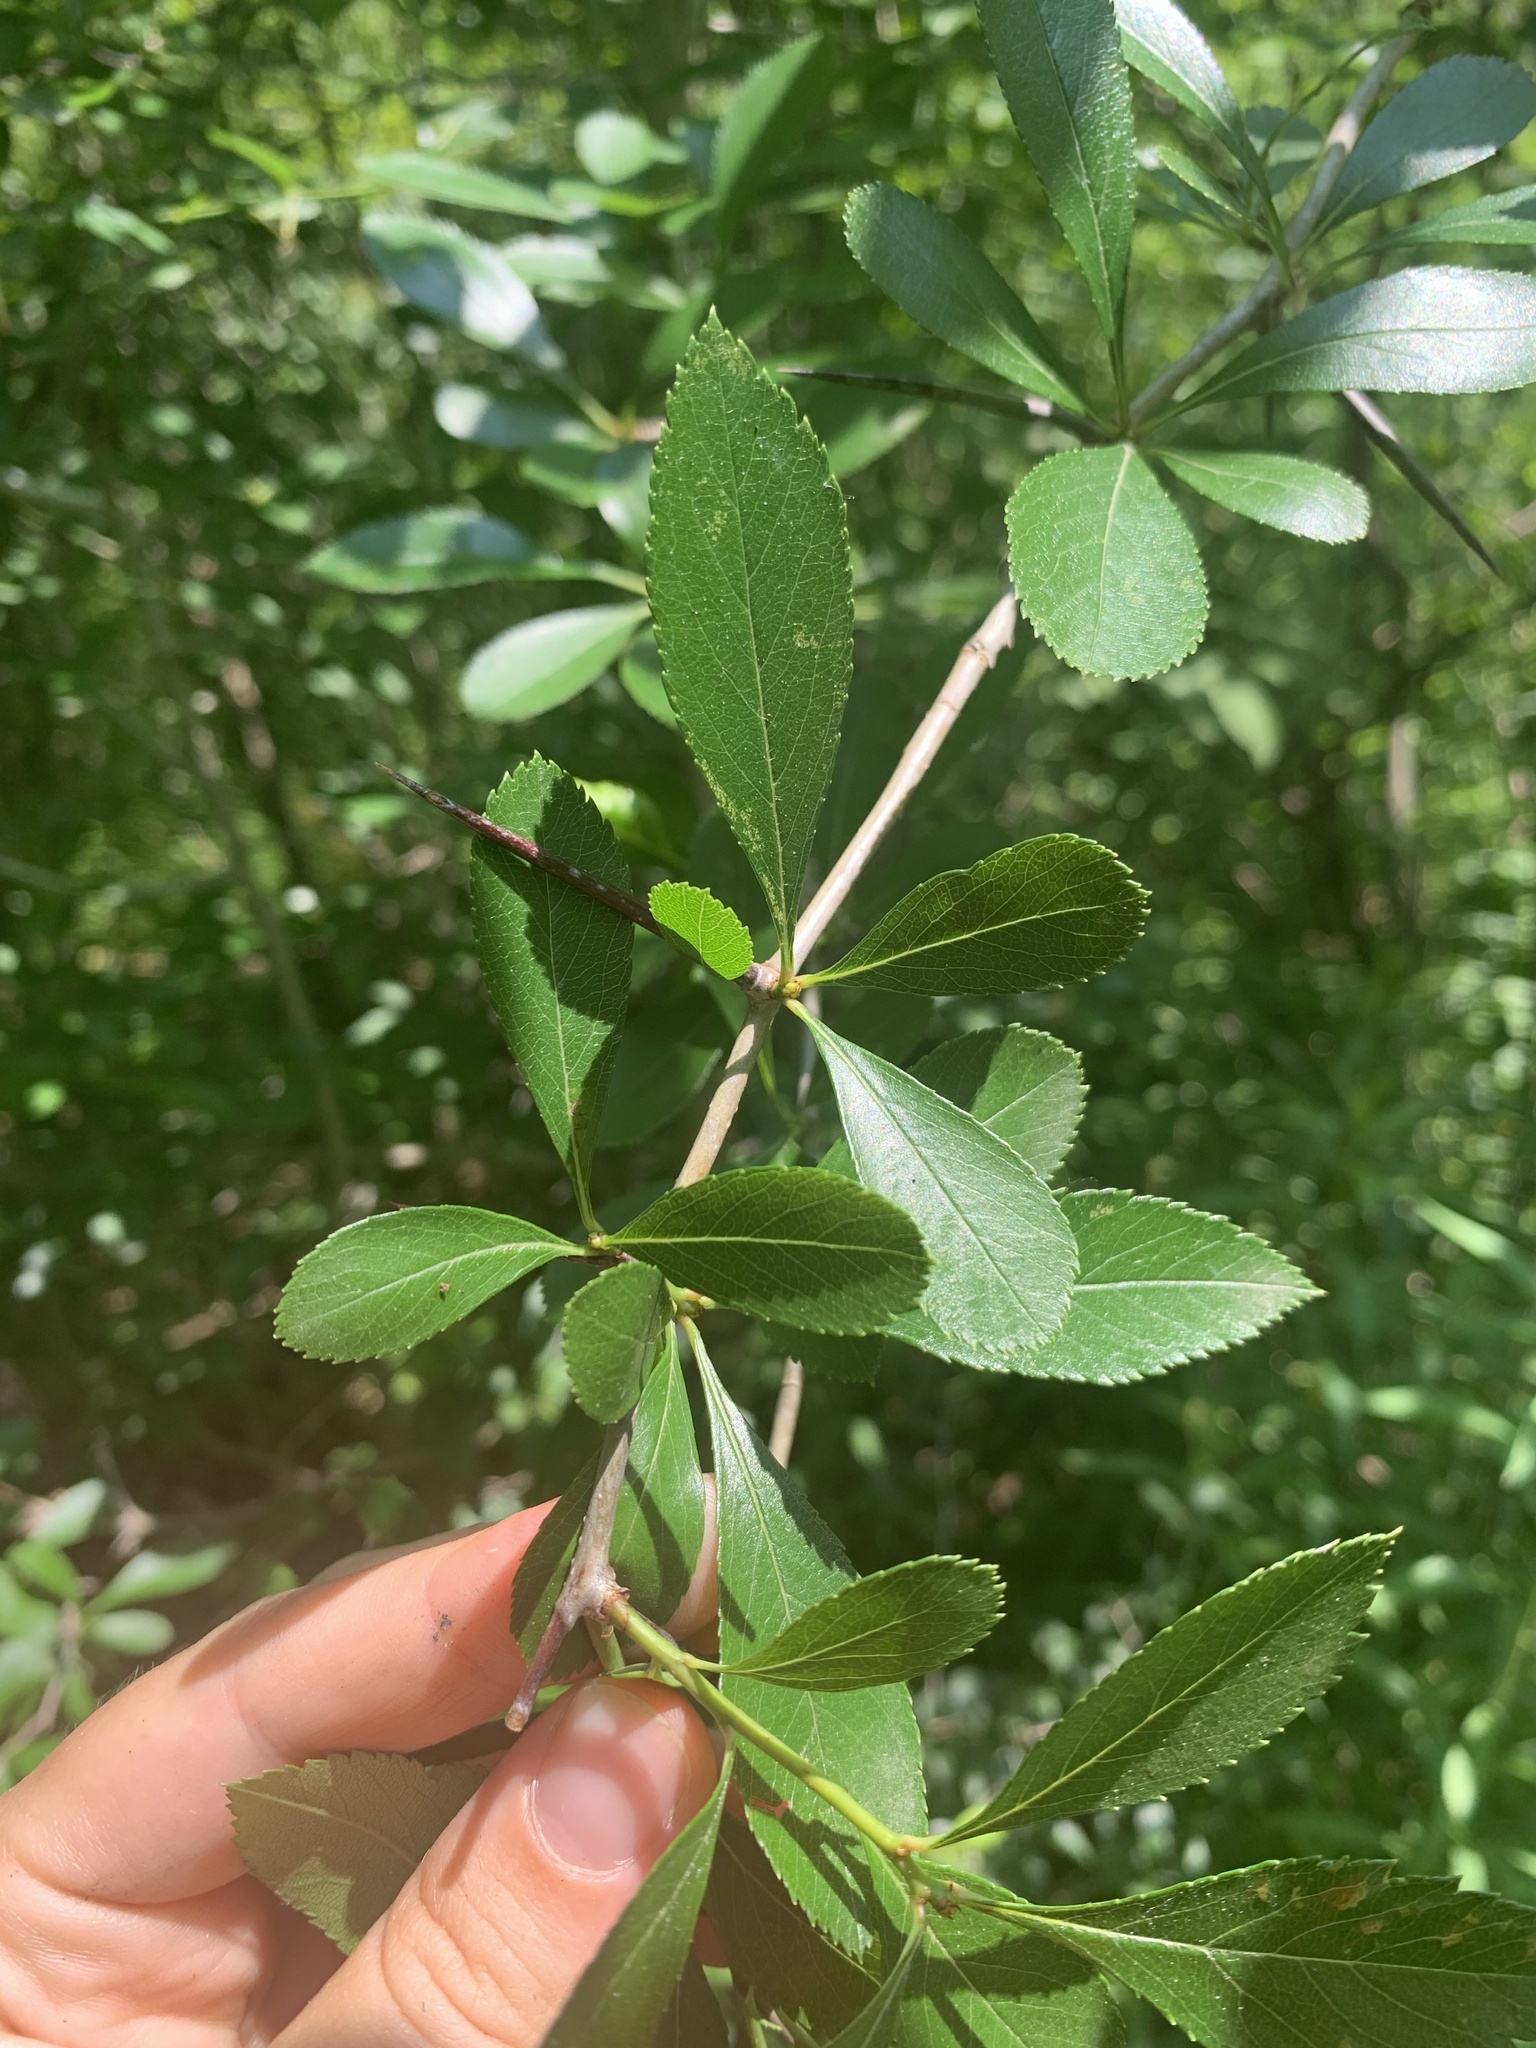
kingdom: Plantae
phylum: Tracheophyta
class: Magnoliopsida
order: Rosales
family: Rosaceae
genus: Crataegus
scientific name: Crataegus crus-galli
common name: Cockspurthorn
